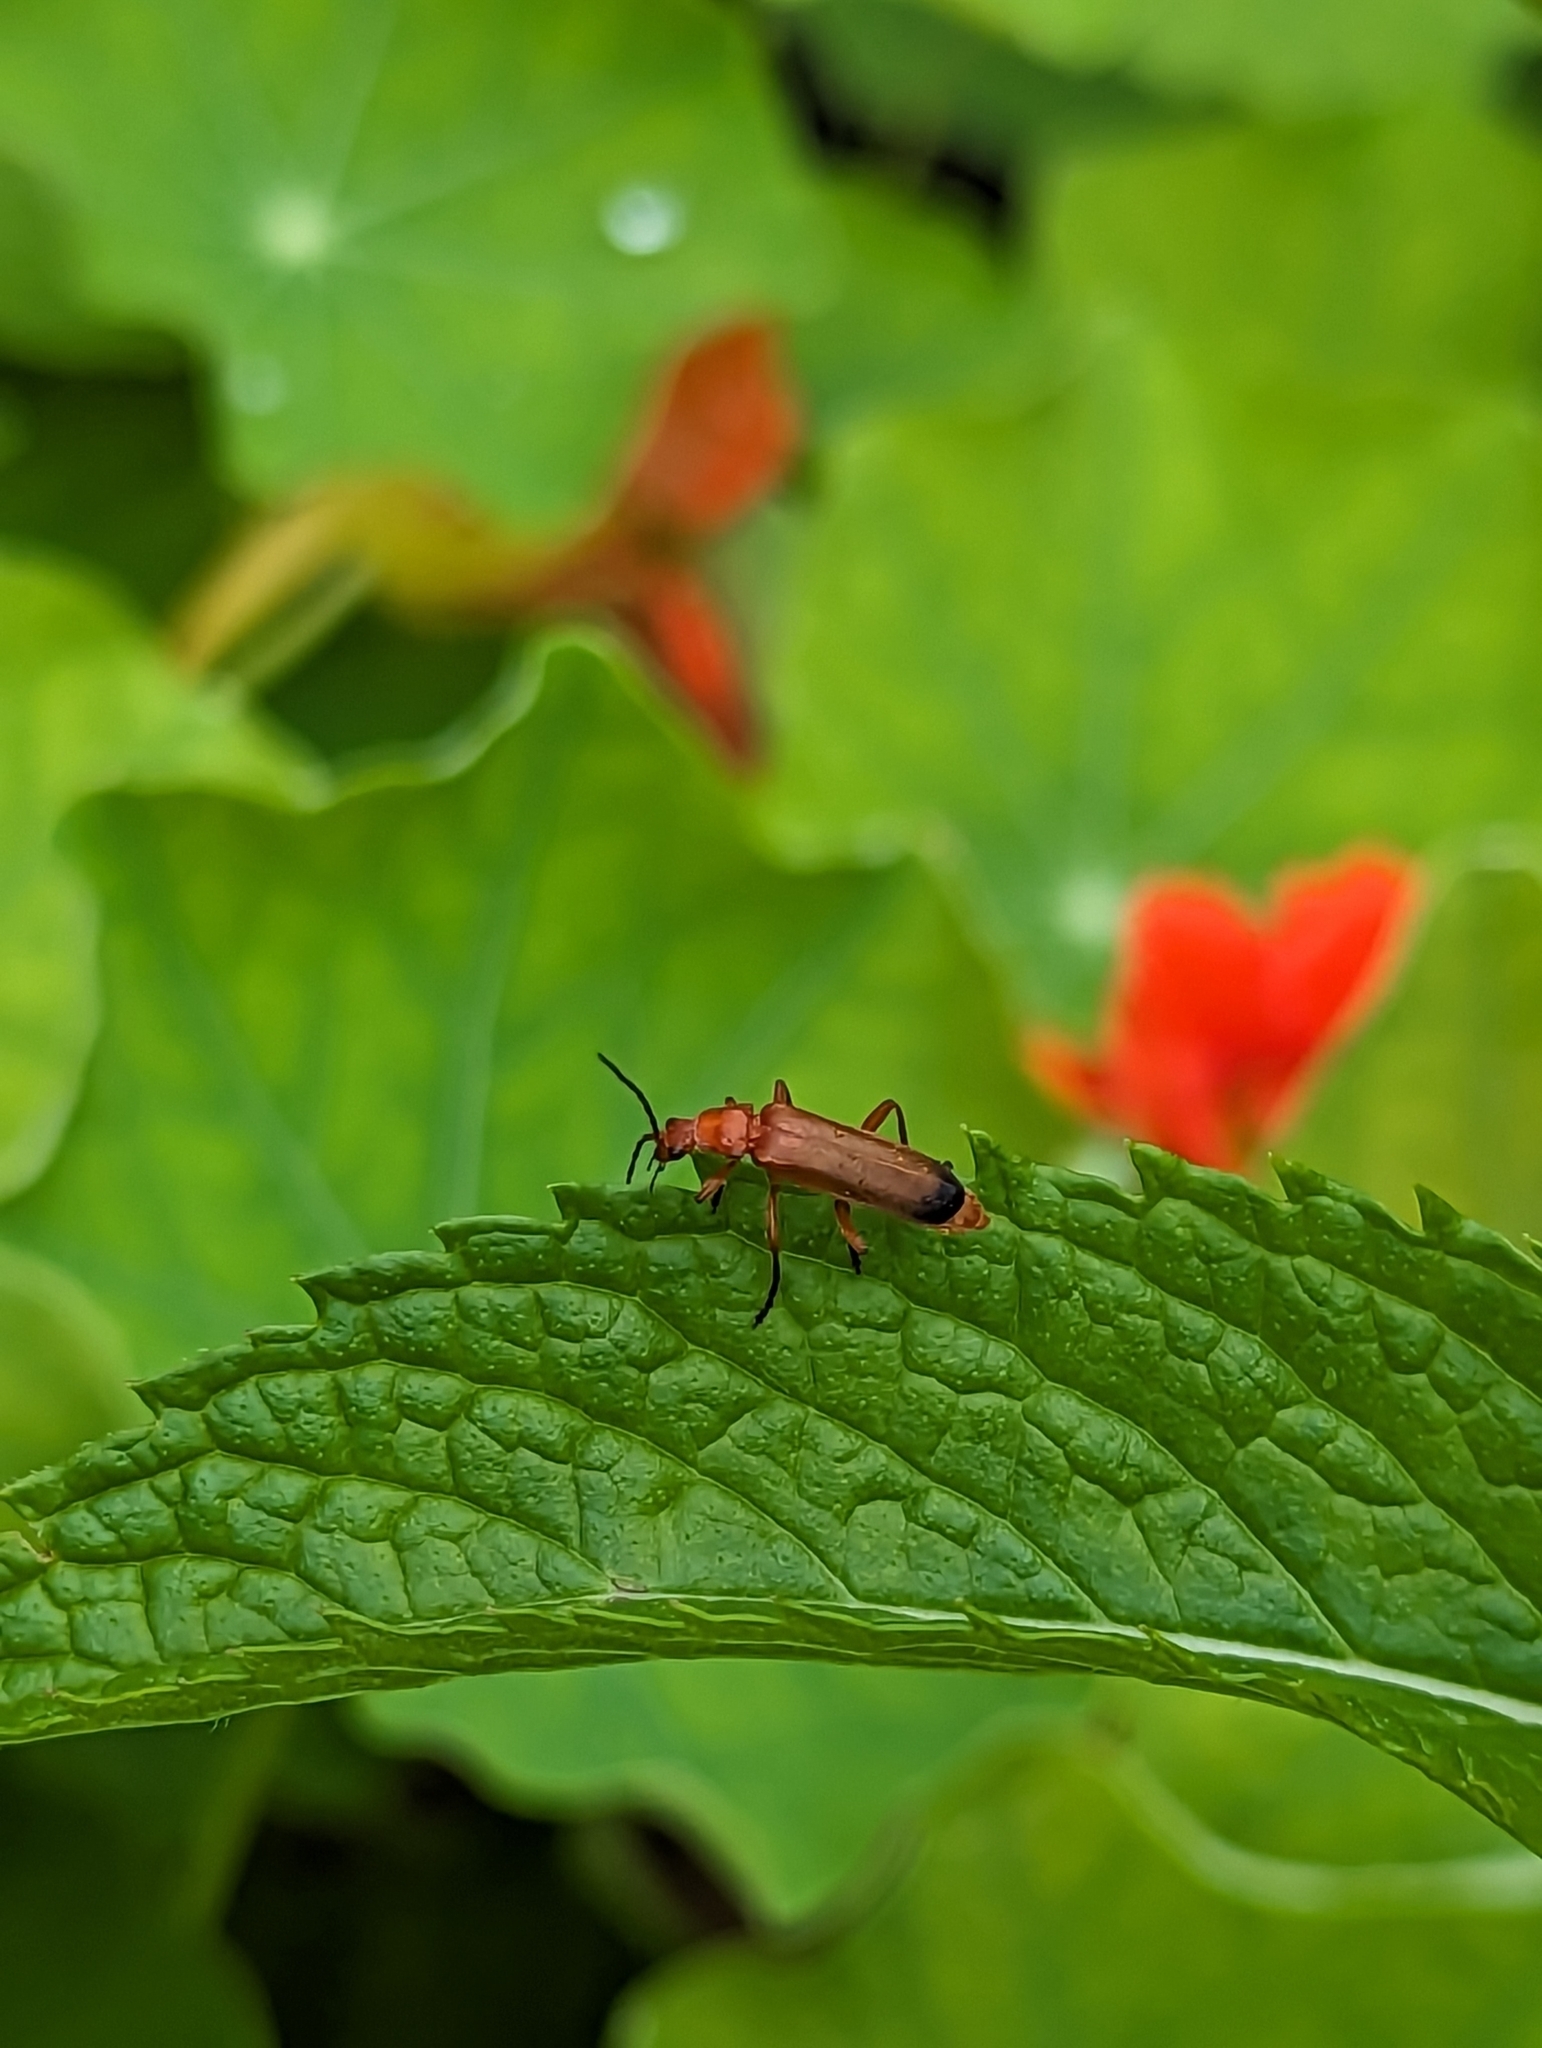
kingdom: Animalia
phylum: Arthropoda
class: Insecta
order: Coleoptera
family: Cantharidae
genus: Rhagonycha
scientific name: Rhagonycha fulva
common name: Common red soldier beetle
